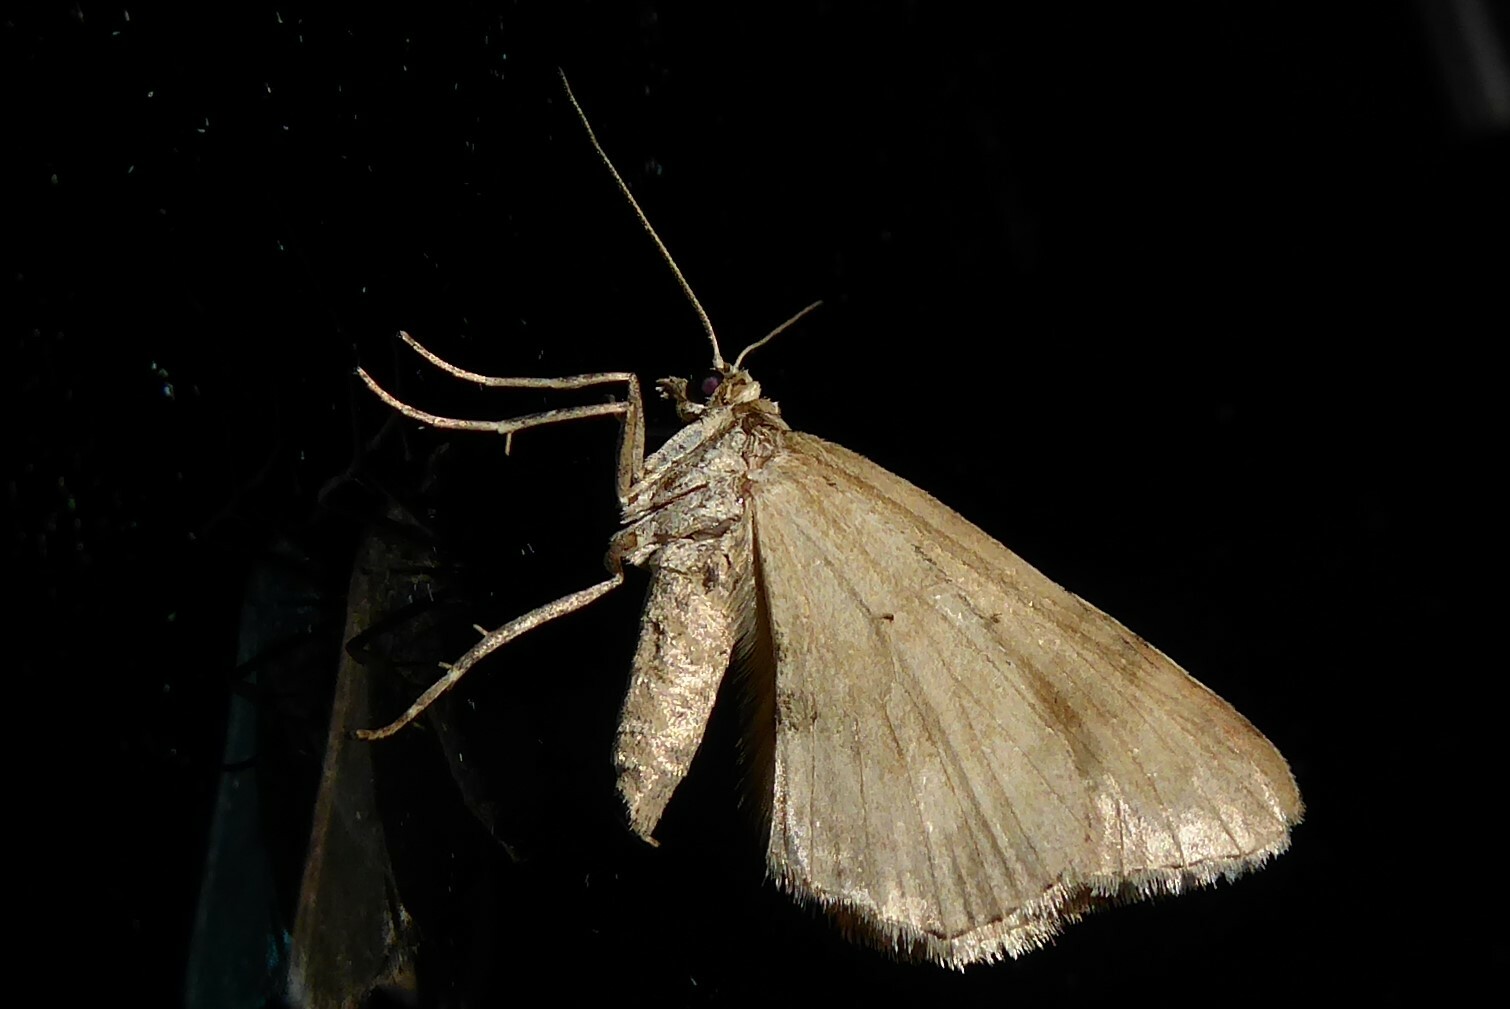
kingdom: Animalia
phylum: Arthropoda
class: Insecta
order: Lepidoptera
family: Geometridae
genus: Asaphodes
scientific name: Asaphodes aegrota
